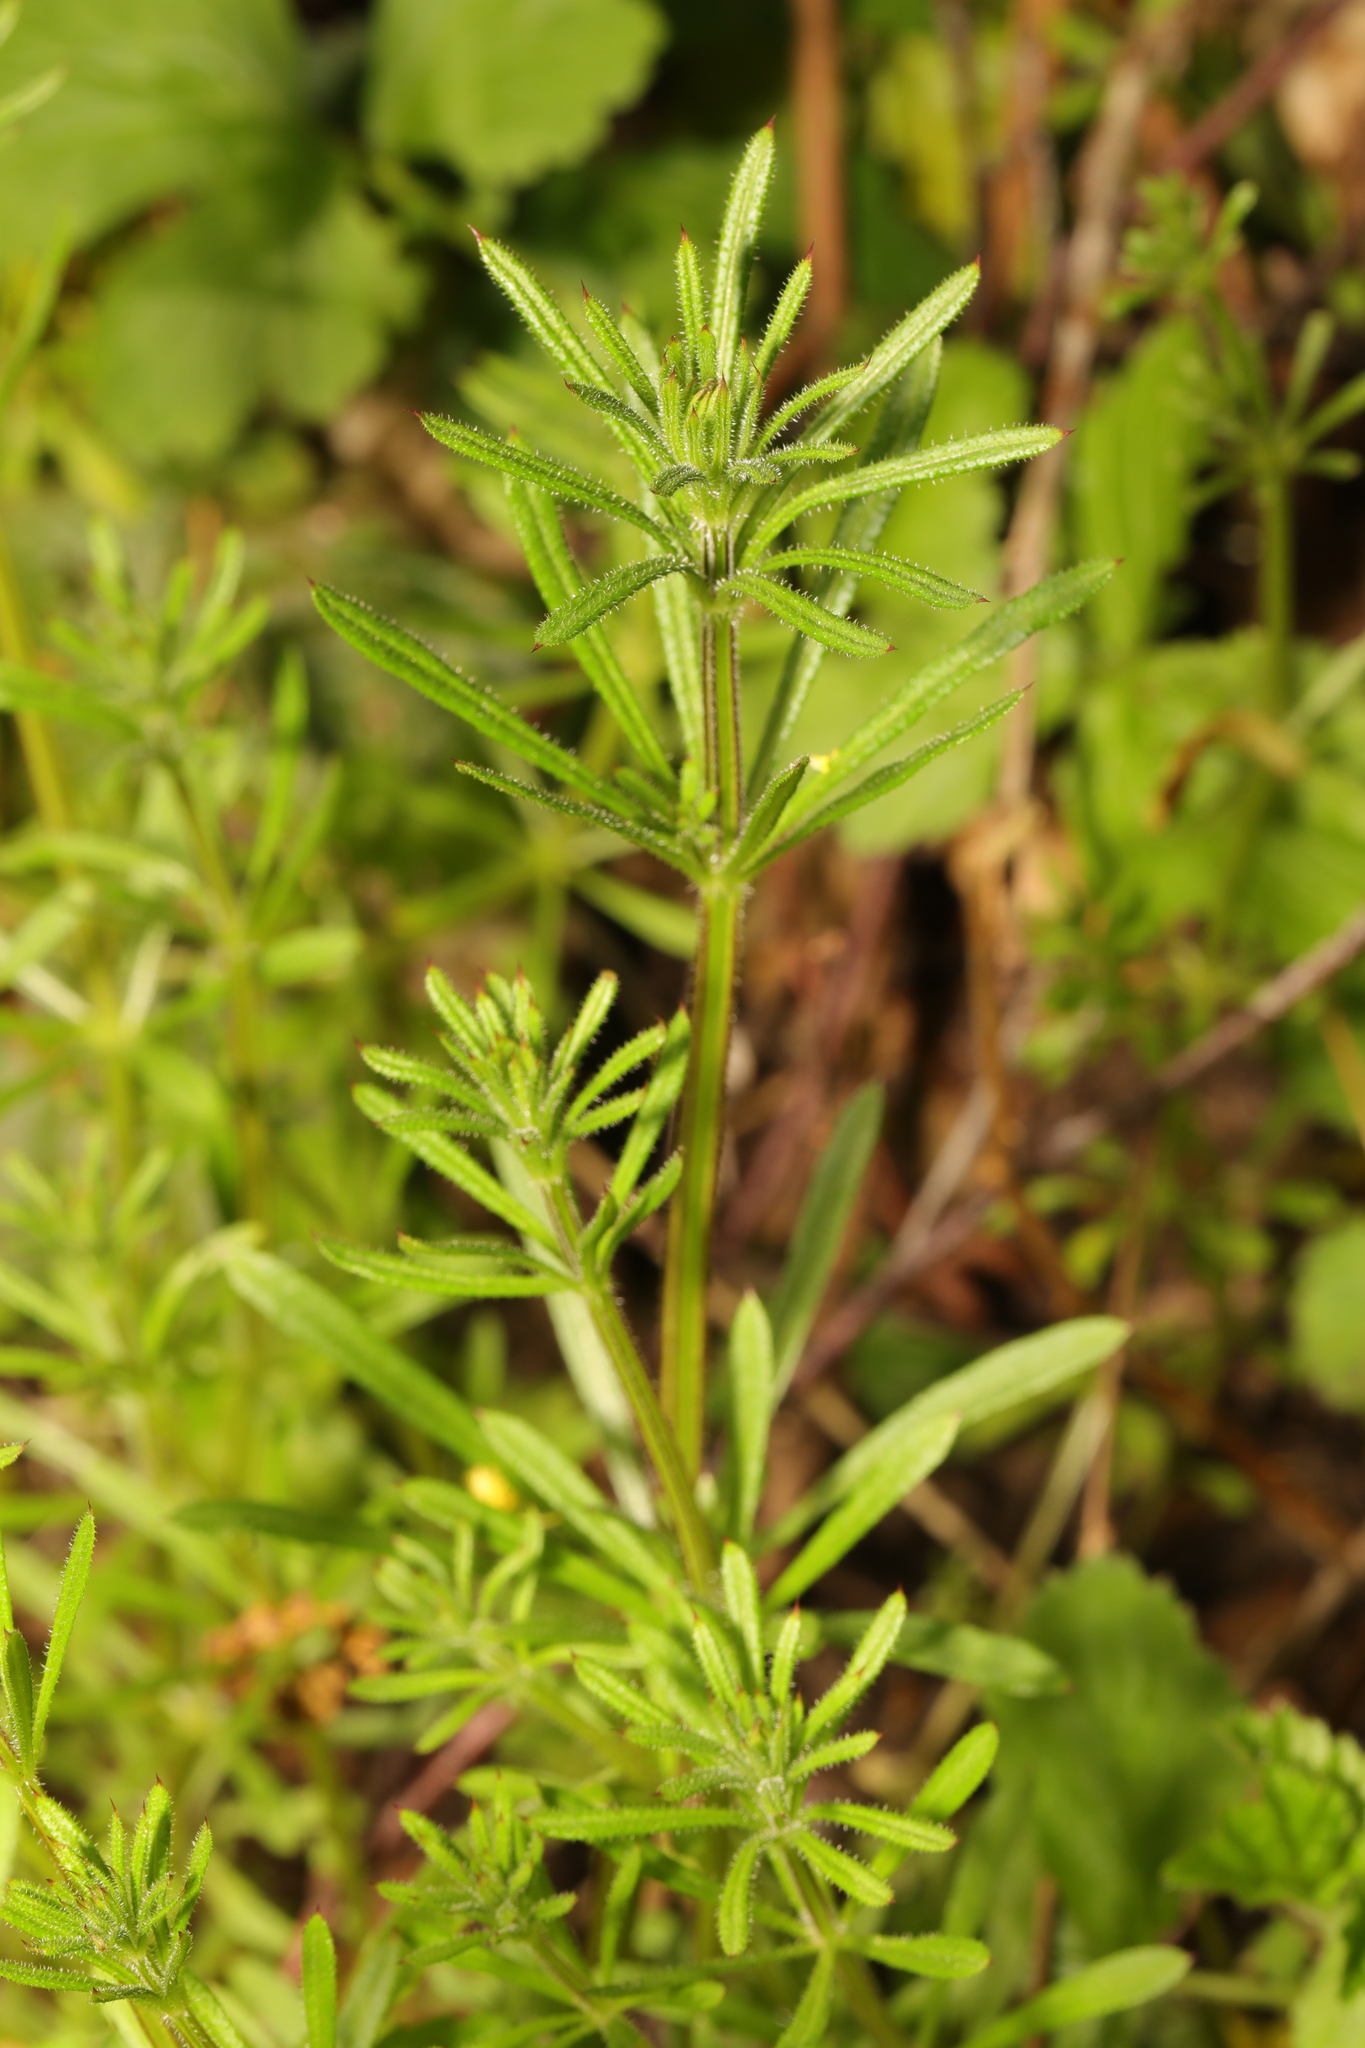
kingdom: Plantae
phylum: Tracheophyta
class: Magnoliopsida
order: Gentianales
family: Rubiaceae
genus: Galium
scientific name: Galium aparine
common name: Cleavers
